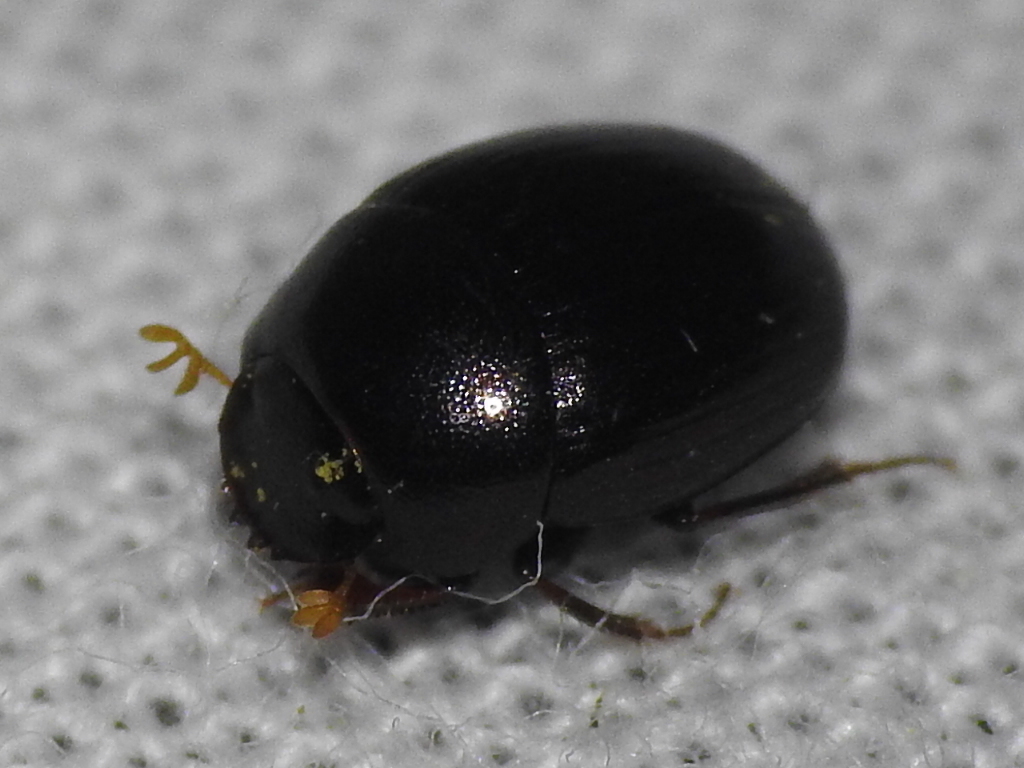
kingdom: Animalia
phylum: Arthropoda
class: Insecta
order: Coleoptera
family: Scarabaeidae
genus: Pseudocanthon
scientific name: Pseudocanthon perplexus
